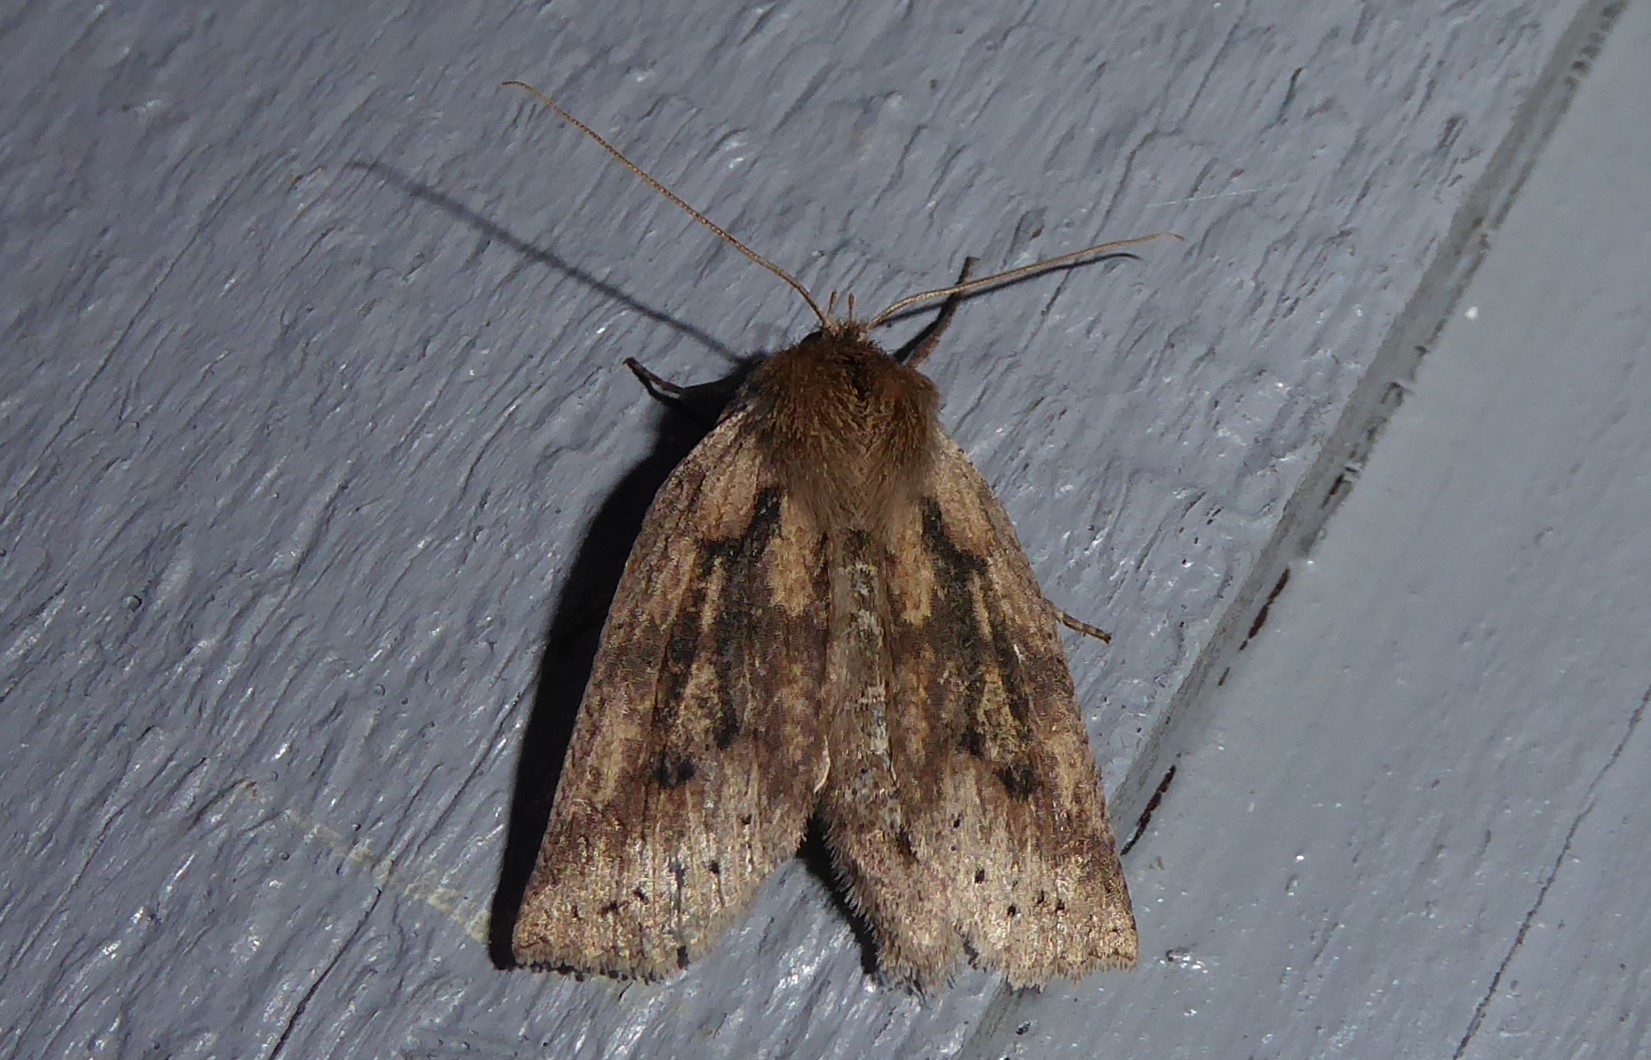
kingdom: Animalia
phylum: Arthropoda
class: Insecta
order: Lepidoptera
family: Geometridae
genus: Declana
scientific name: Declana leptomera
